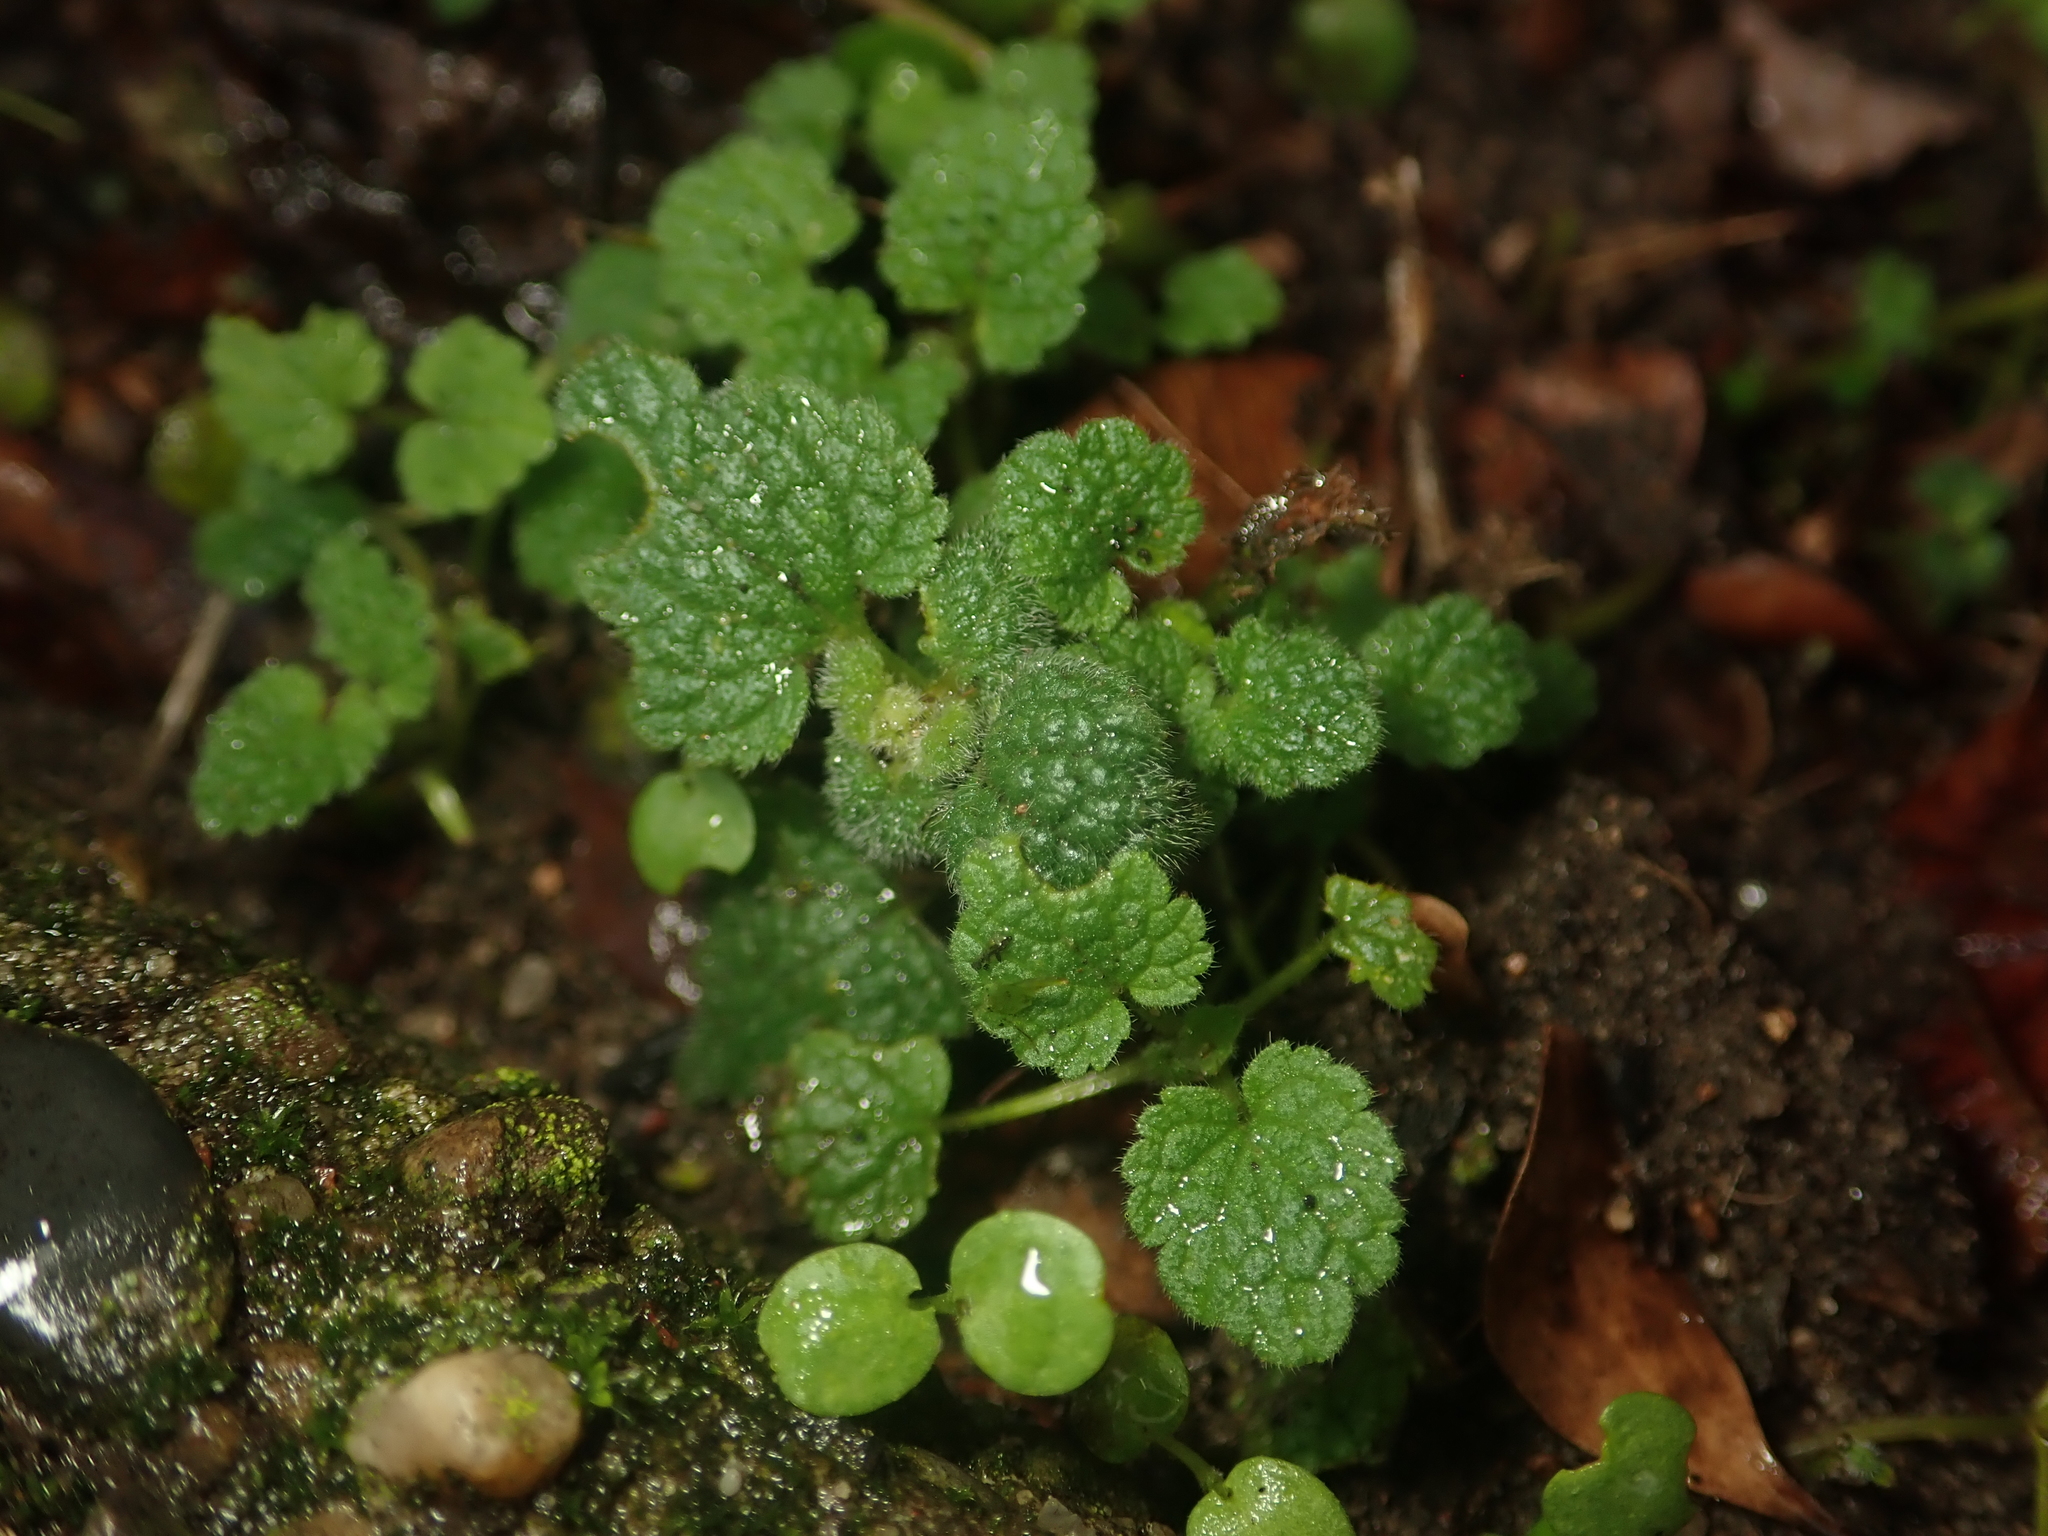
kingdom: Plantae
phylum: Tracheophyta
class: Magnoliopsida
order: Lamiales
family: Lamiaceae
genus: Lamium
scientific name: Lamium purpureum
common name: Red dead-nettle
